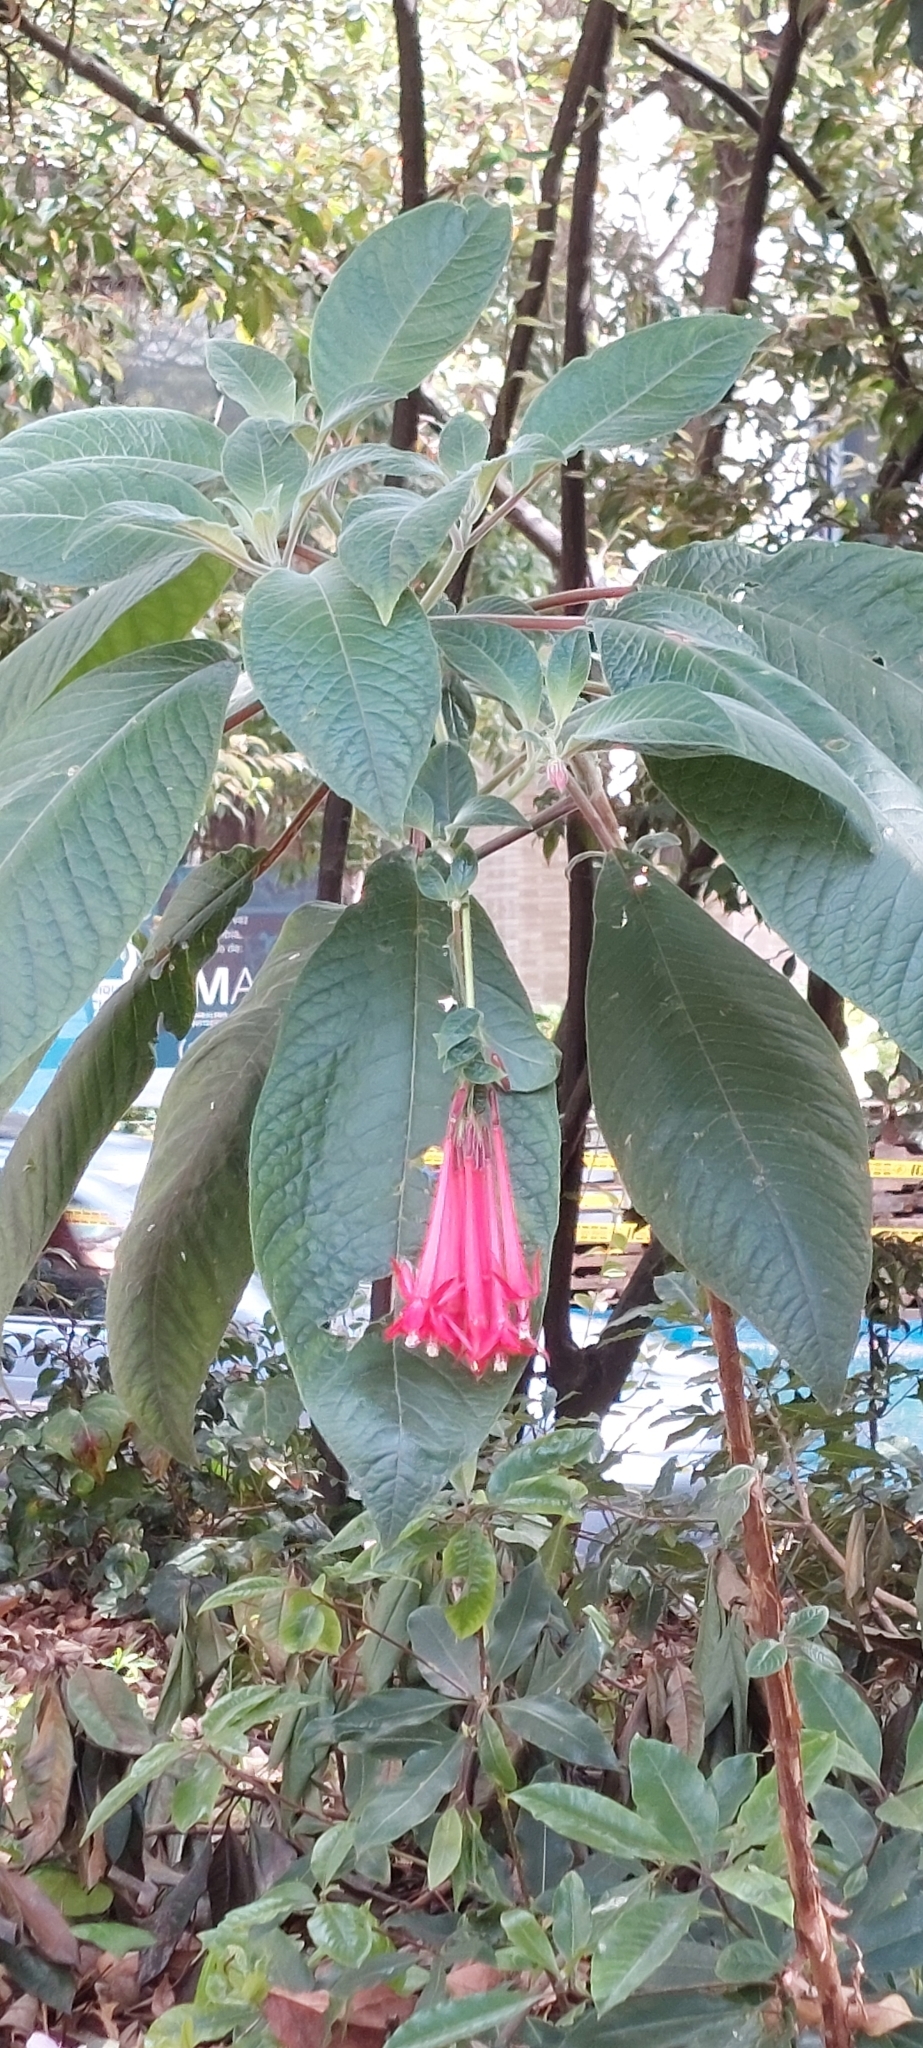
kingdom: Plantae
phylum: Tracheophyta
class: Magnoliopsida
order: Myrtales
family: Onagraceae
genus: Fuchsia
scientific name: Fuchsia boliviana
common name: Bolivian fuchsia
